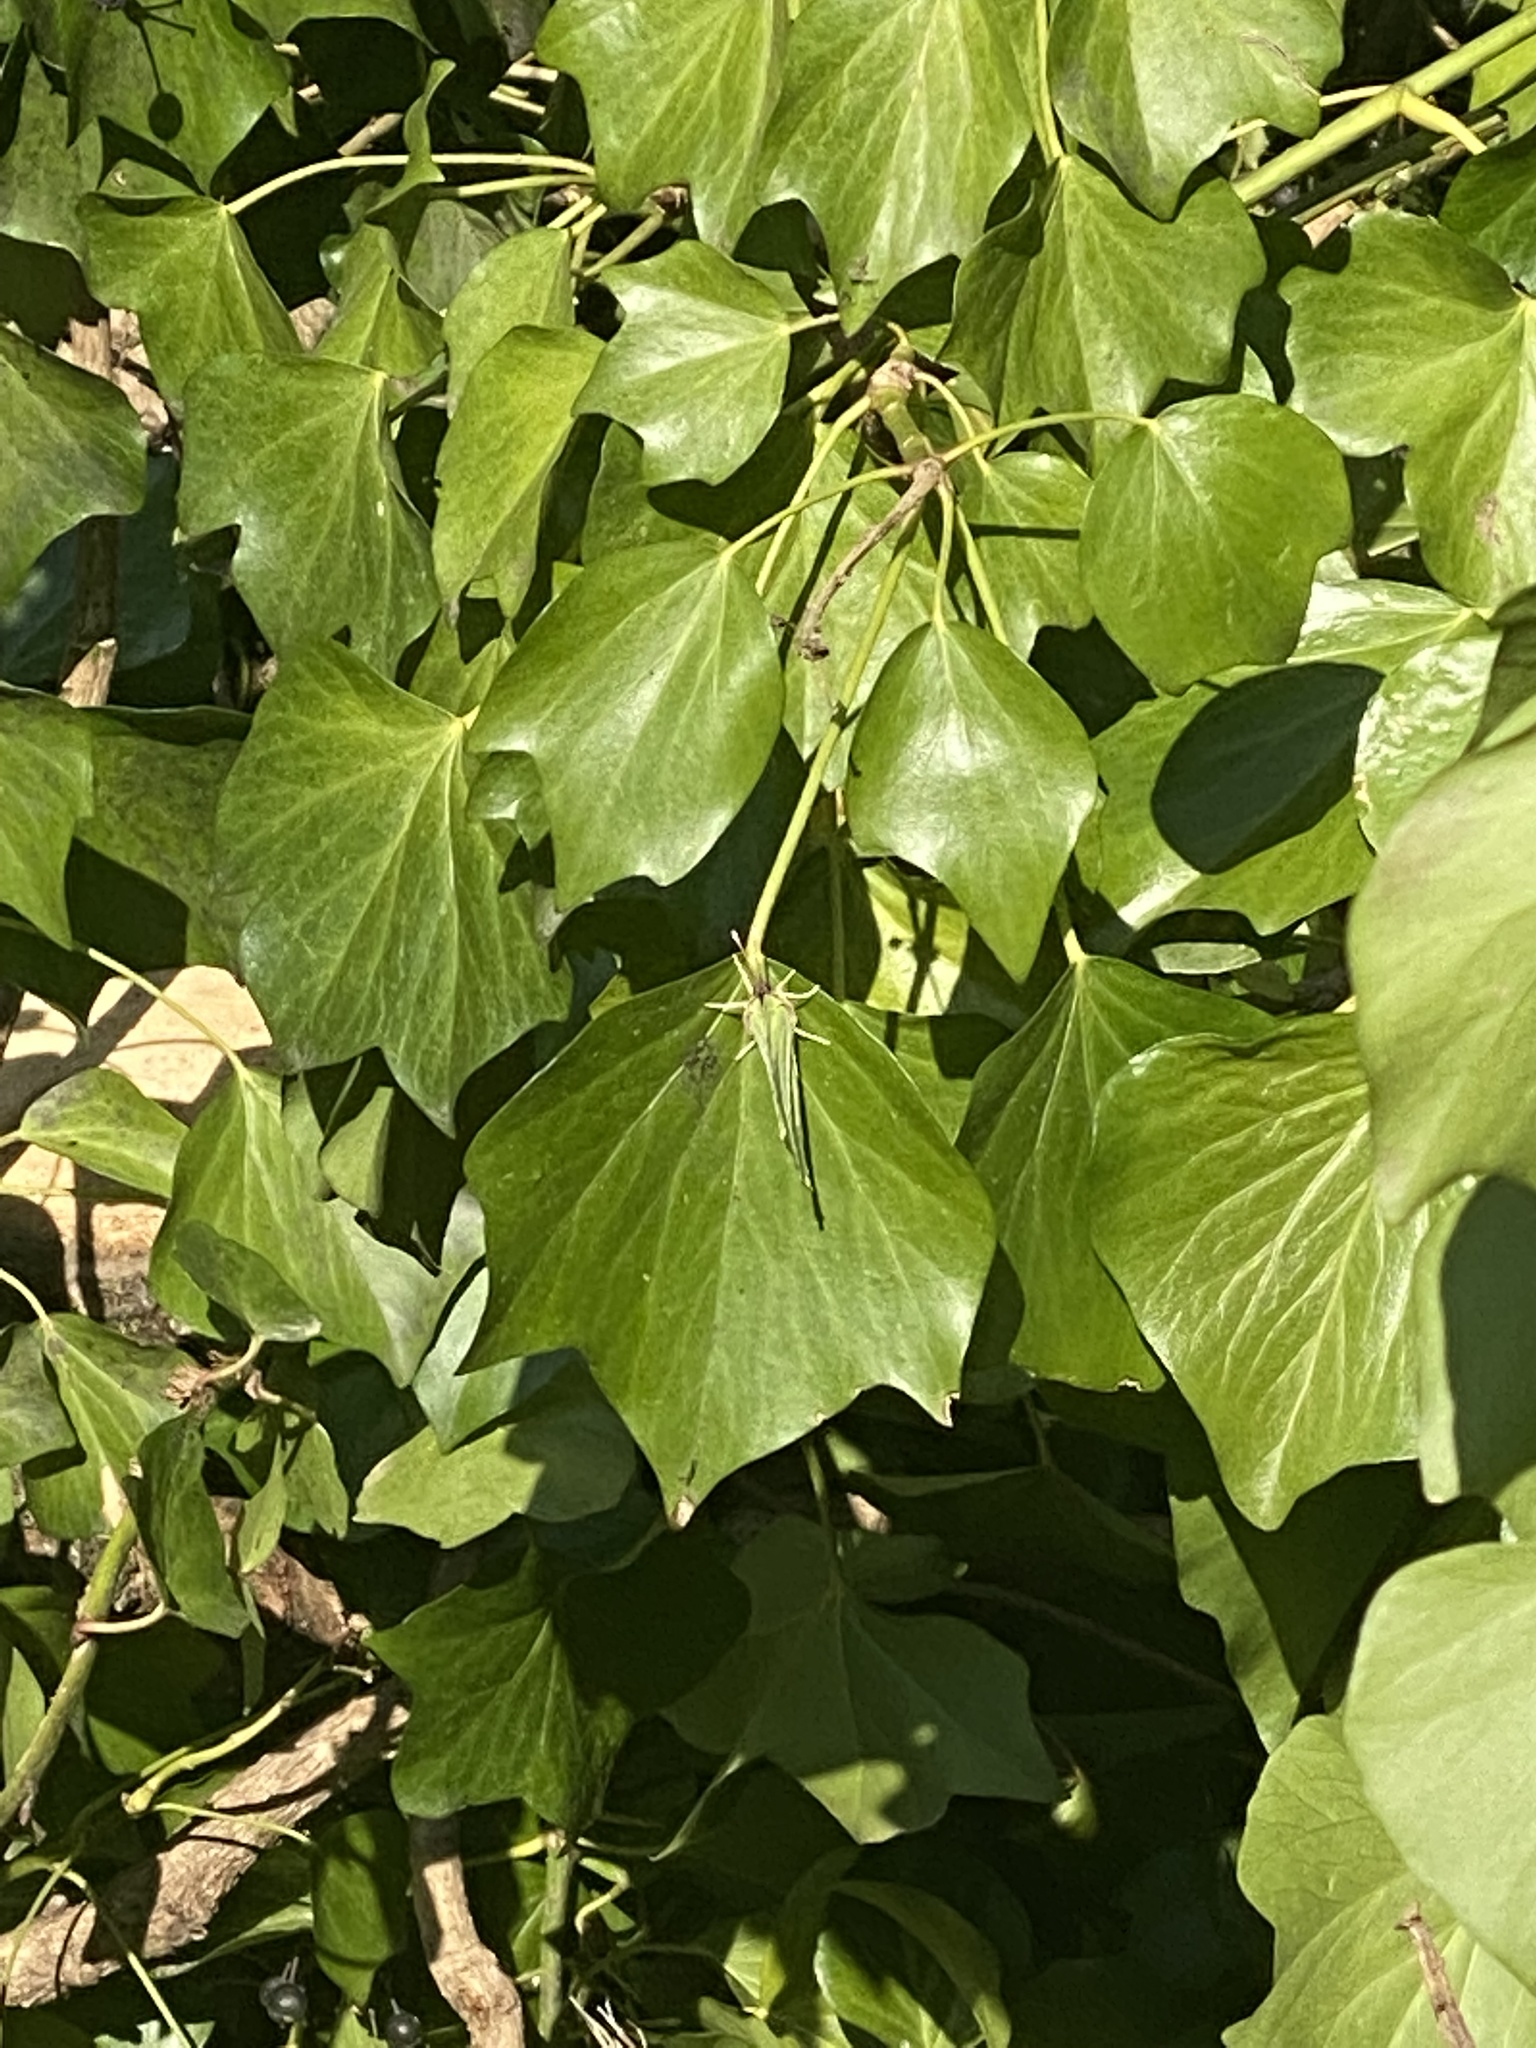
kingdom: Animalia
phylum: Arthropoda
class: Insecta
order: Lepidoptera
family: Pieridae
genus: Gonepteryx
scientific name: Gonepteryx rhamni
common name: Brimstone
